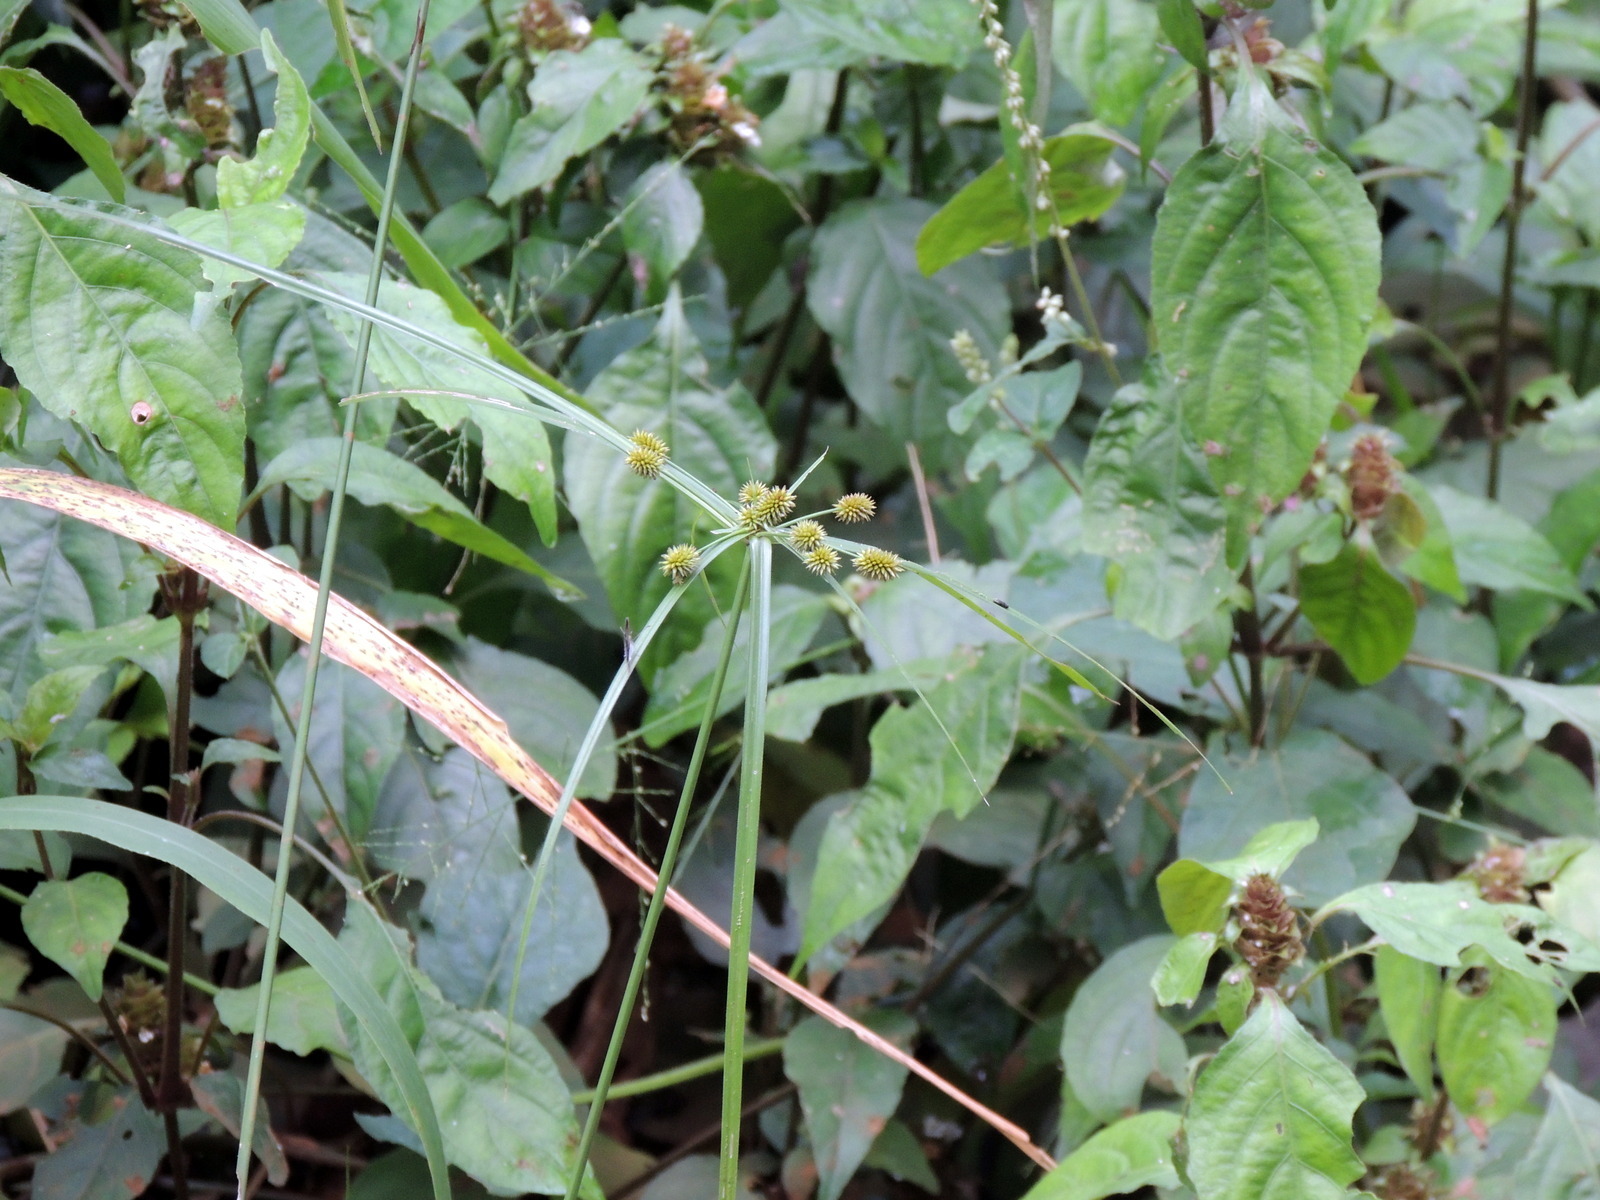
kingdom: Plantae
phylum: Tracheophyta
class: Liliopsida
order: Poales
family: Cyperaceae
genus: Cyperus
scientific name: Cyperus cyperoides
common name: Pacific island flat sedge
